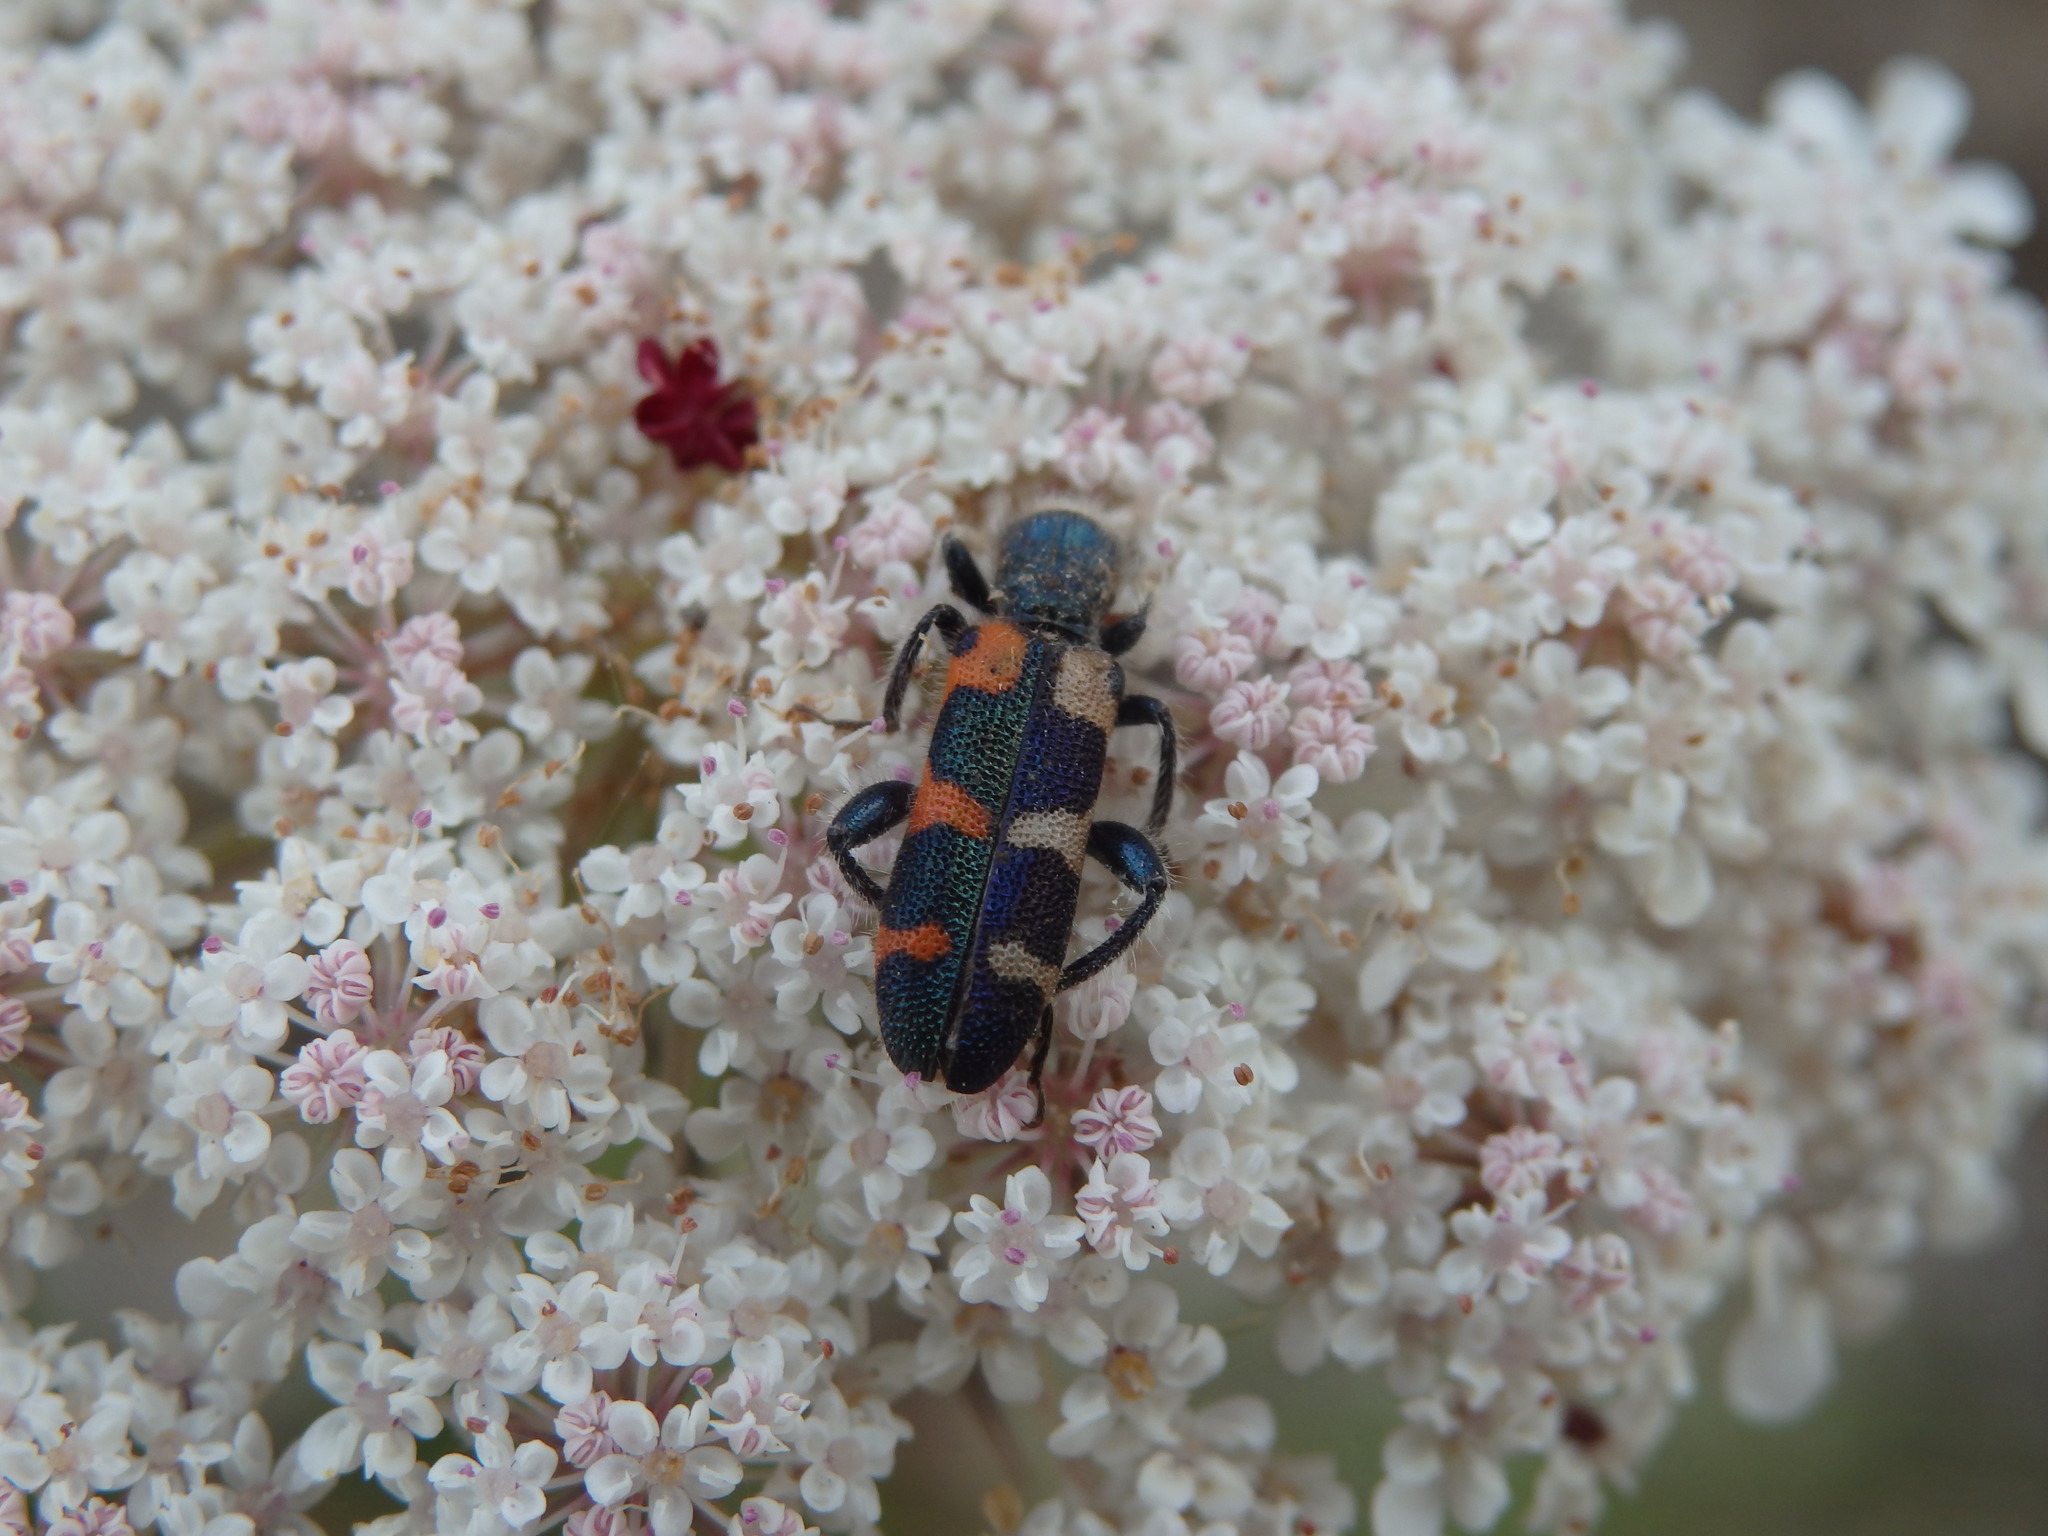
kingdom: Animalia
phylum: Arthropoda
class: Insecta
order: Coleoptera
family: Cleridae
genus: Trichodes
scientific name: Trichodes leucopsideus
